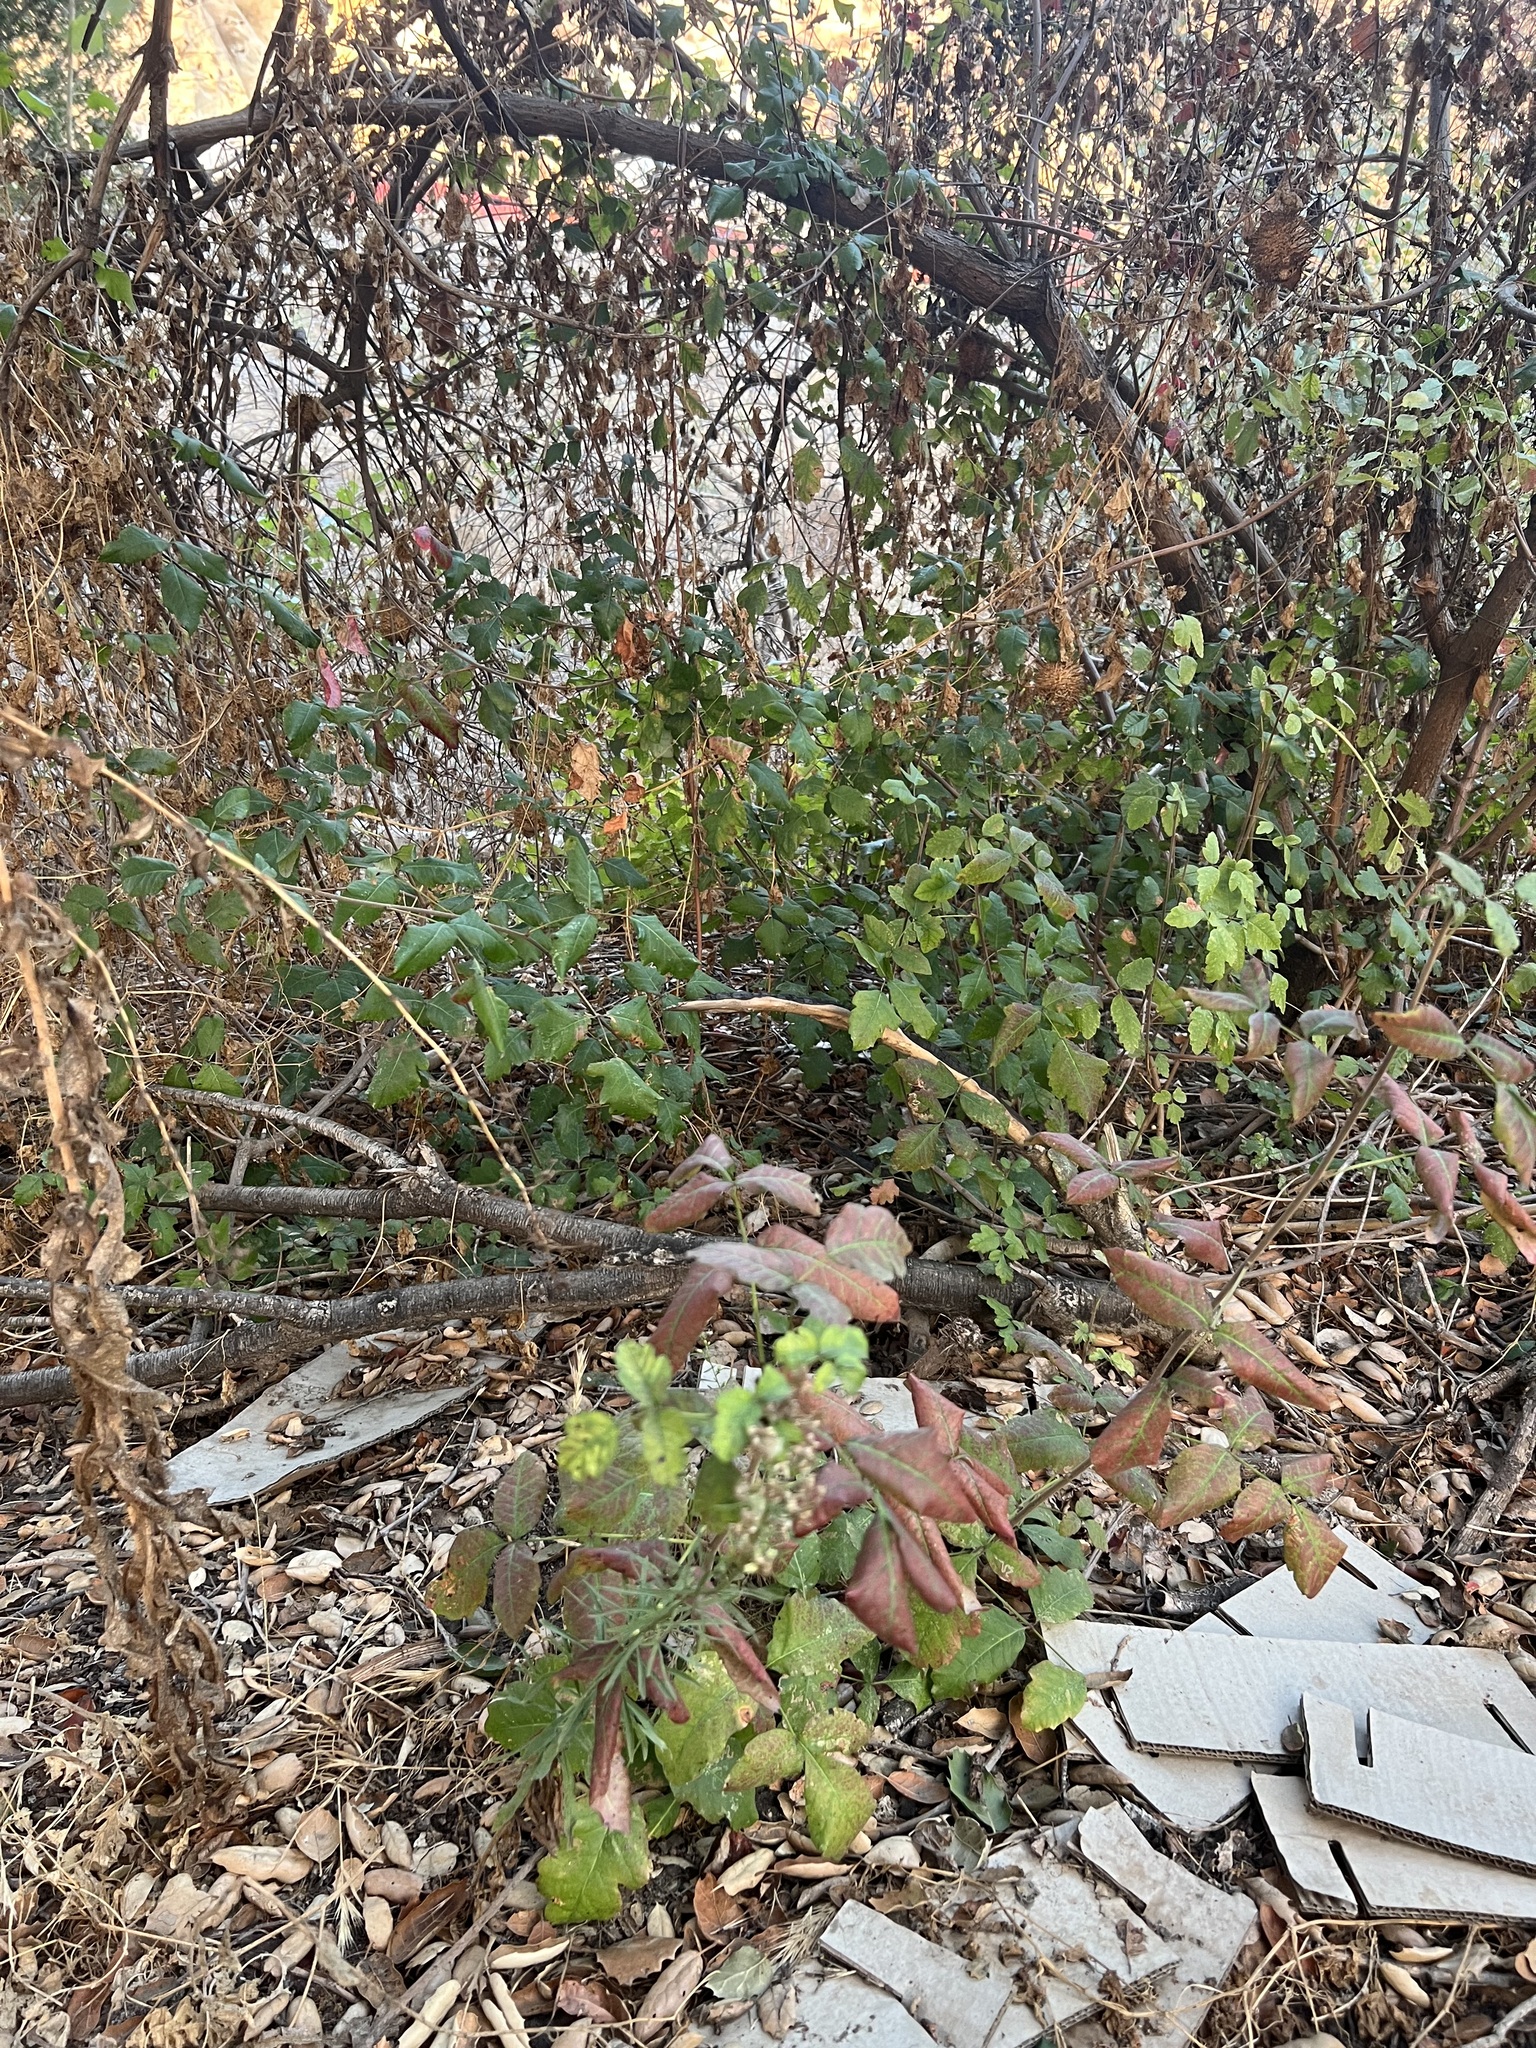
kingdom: Plantae
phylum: Tracheophyta
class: Magnoliopsida
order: Sapindales
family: Anacardiaceae
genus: Toxicodendron
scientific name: Toxicodendron diversilobum
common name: Pacific poison-oak
